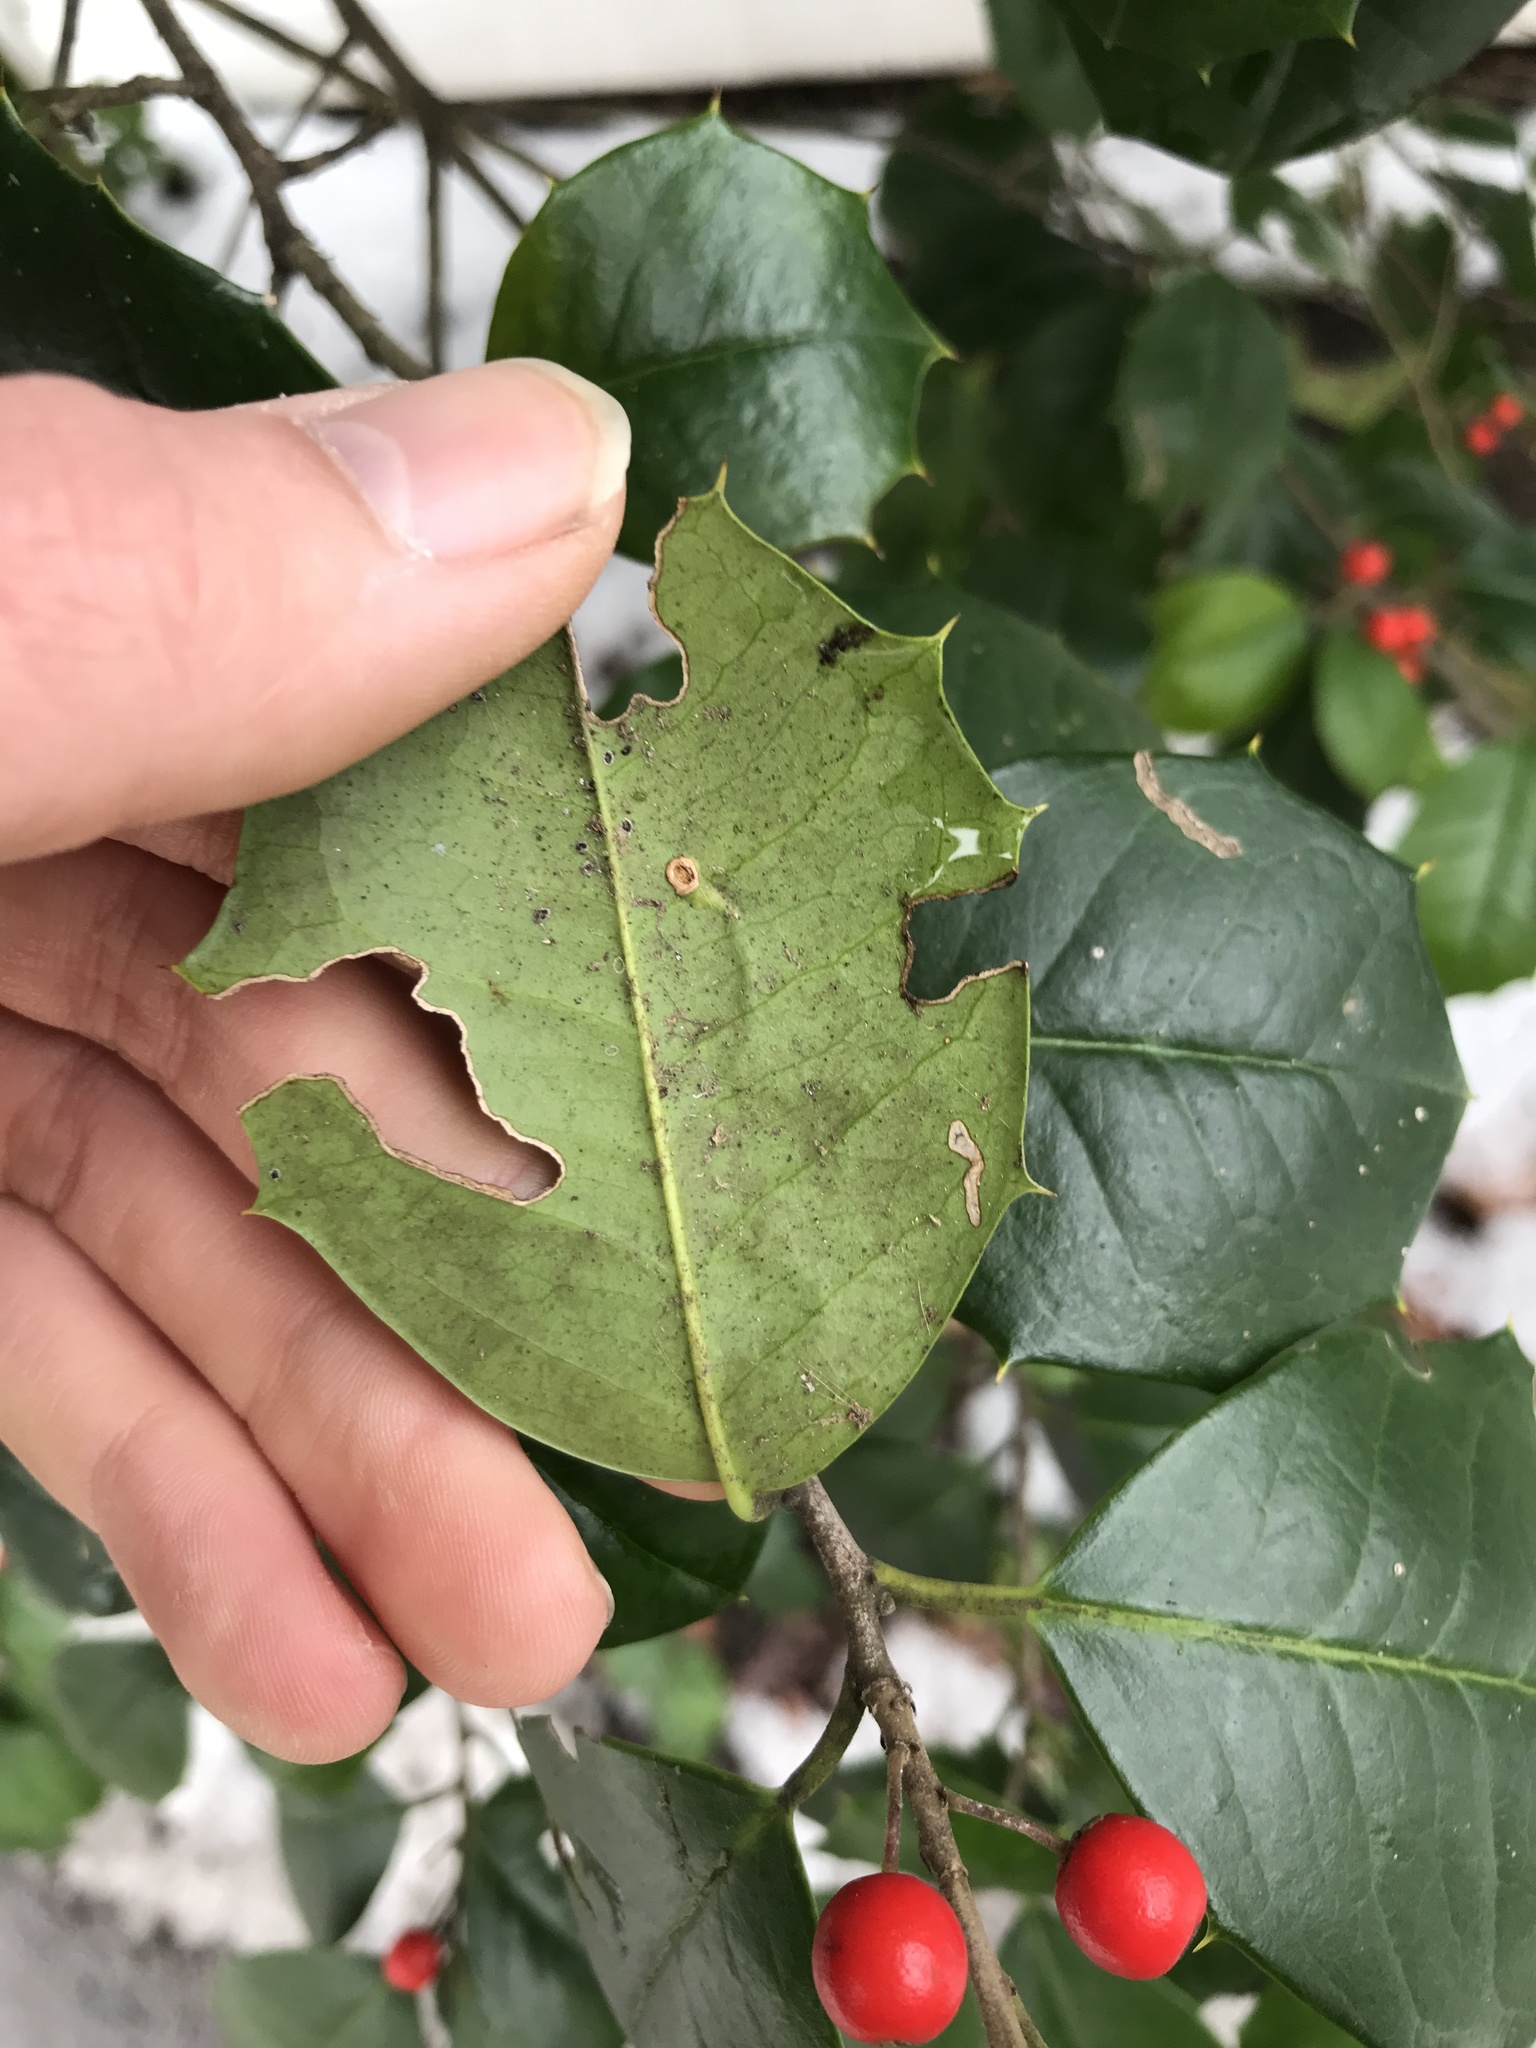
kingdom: Animalia
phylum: Arthropoda
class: Insecta
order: Diptera
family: Agromyzidae
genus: Phytomyza
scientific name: Phytomyza opacae
